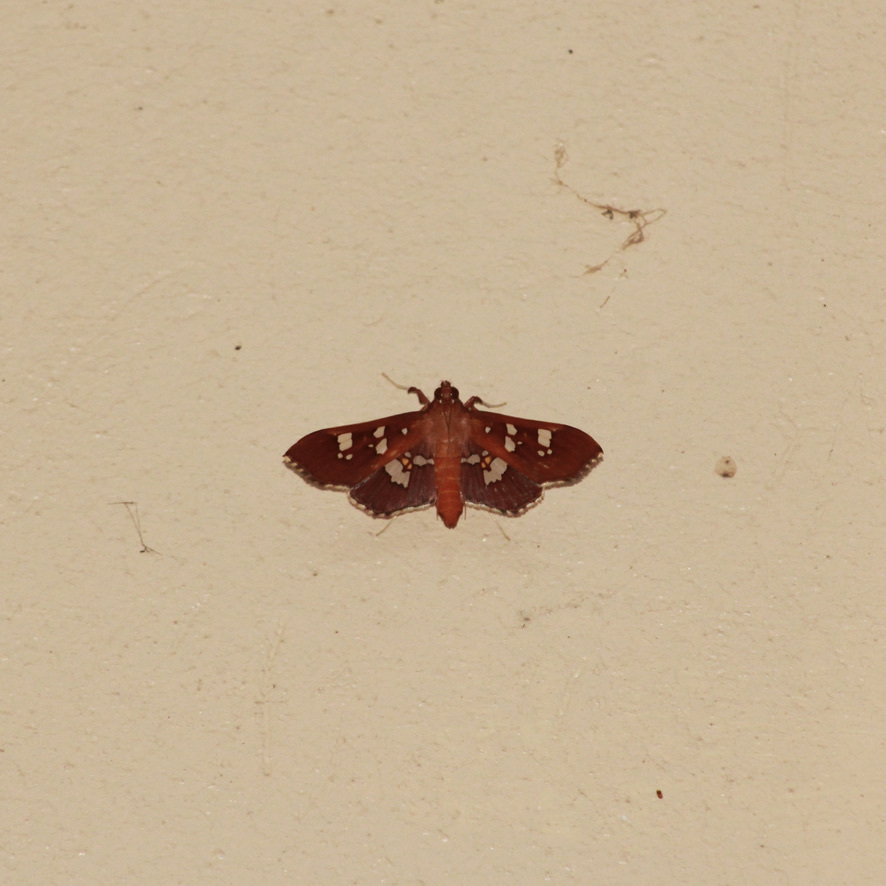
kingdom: Animalia
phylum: Arthropoda
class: Insecta
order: Lepidoptera
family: Crambidae
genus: Phostria
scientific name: Phostria temira
